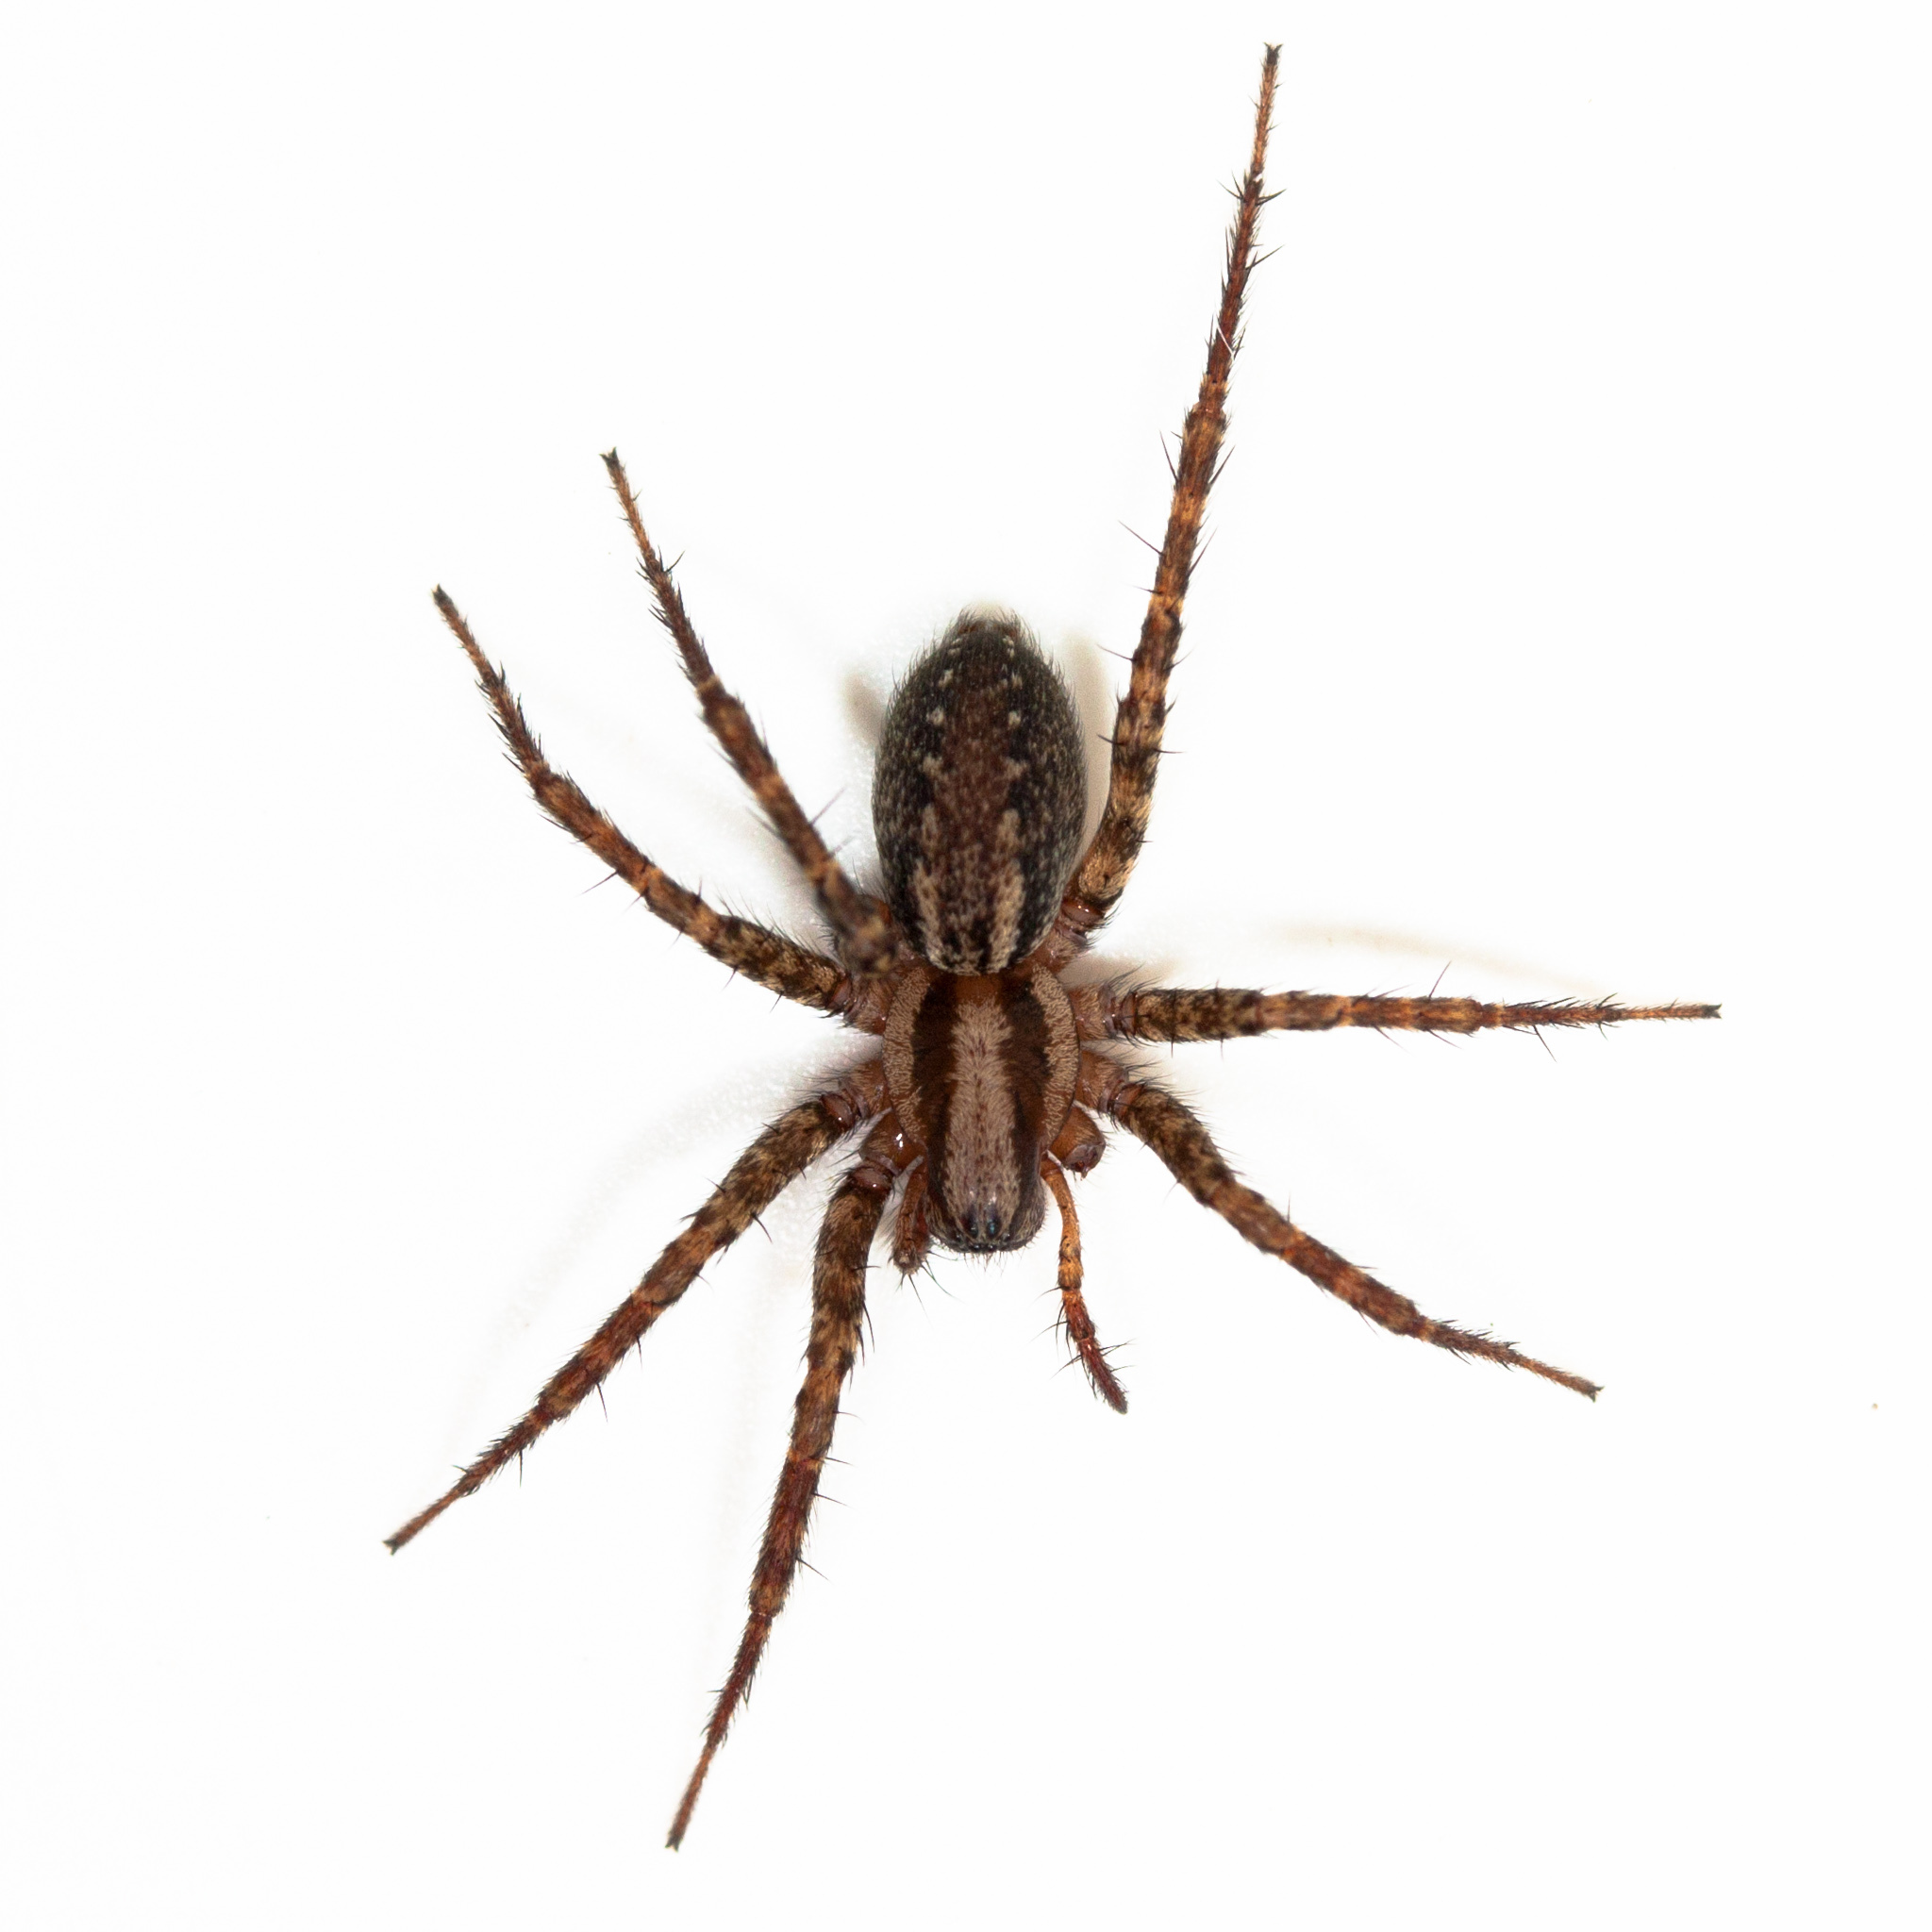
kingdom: Animalia
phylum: Arthropoda
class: Arachnida
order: Araneae
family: Agelenidae
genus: Hololena
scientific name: Hololena
